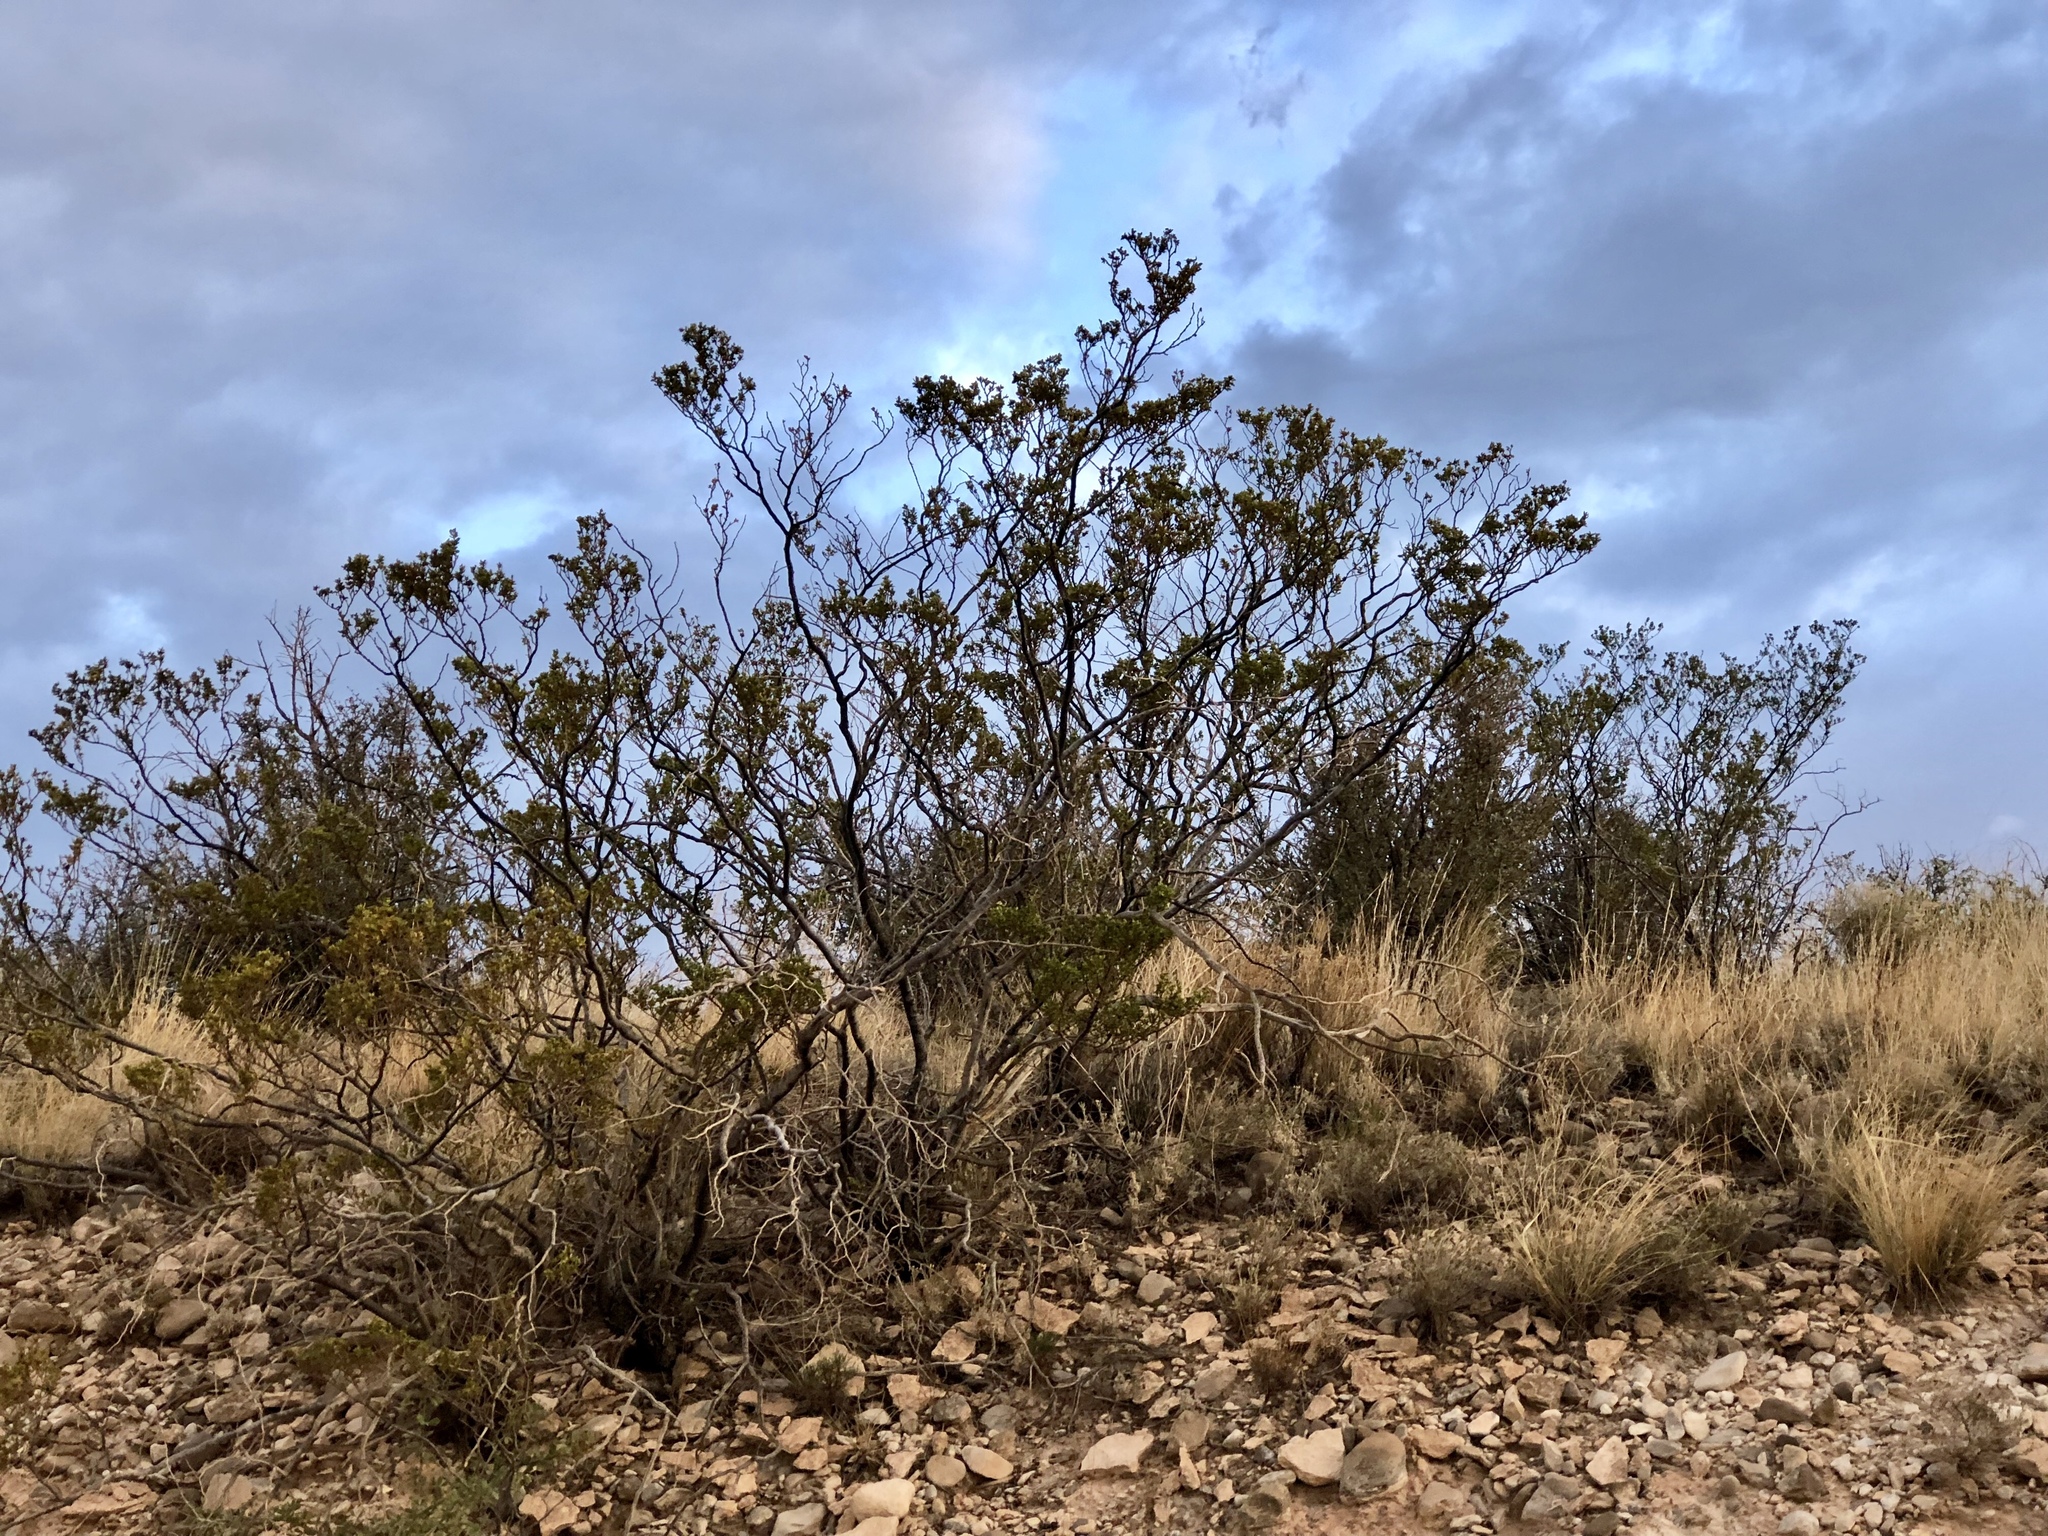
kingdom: Plantae
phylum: Tracheophyta
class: Magnoliopsida
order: Zygophyllales
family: Zygophyllaceae
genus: Larrea
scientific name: Larrea tridentata
